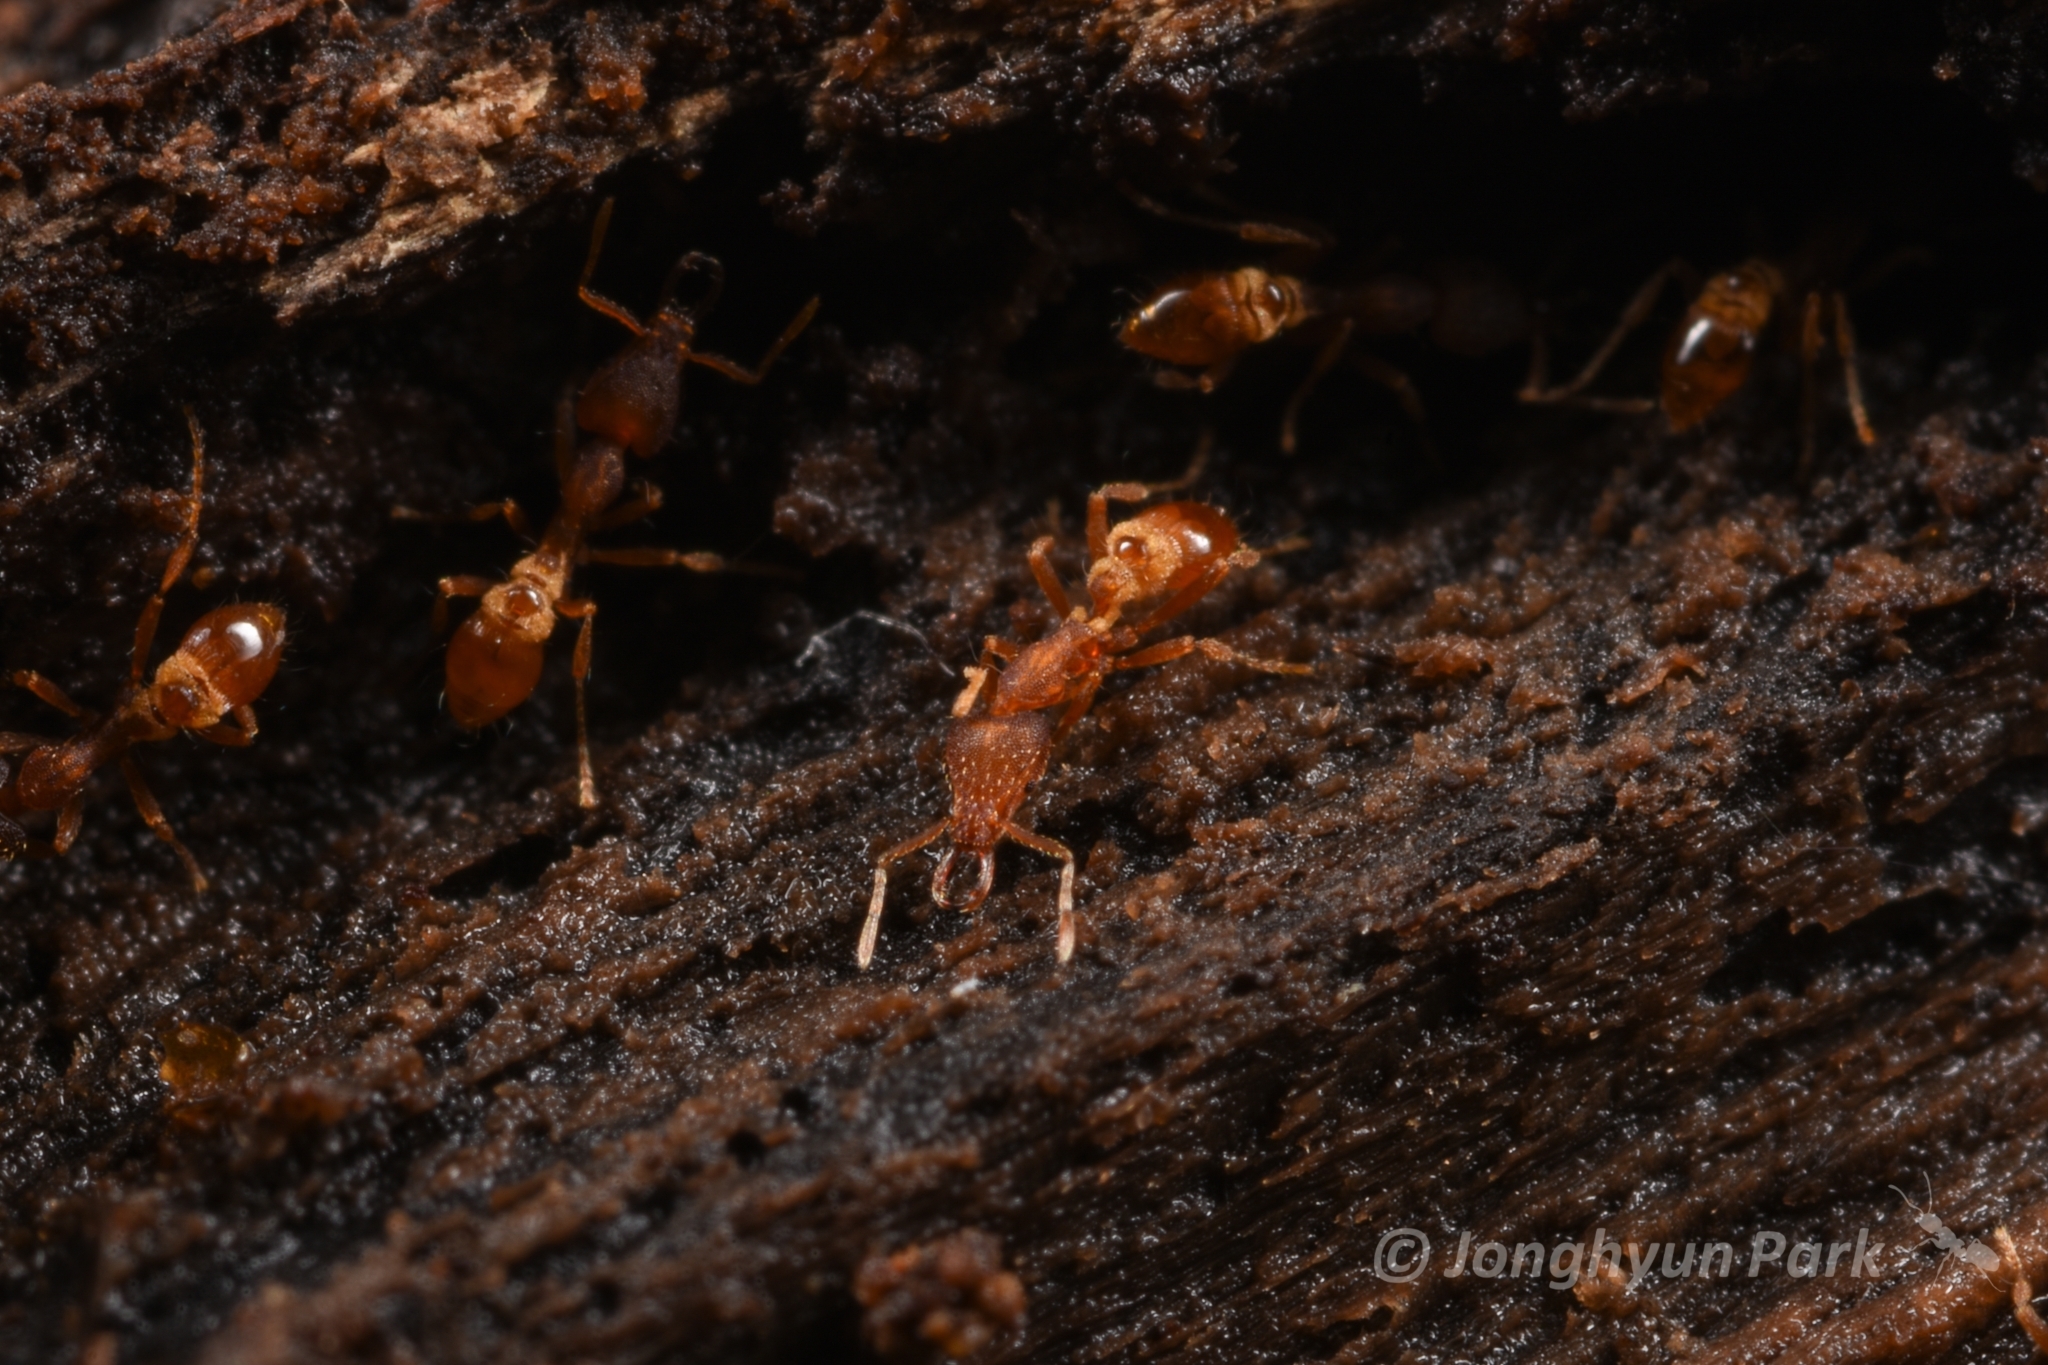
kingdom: Animalia
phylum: Arthropoda
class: Insecta
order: Hymenoptera
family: Formicidae
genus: Strumigenys
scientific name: Strumigenys kumadori
